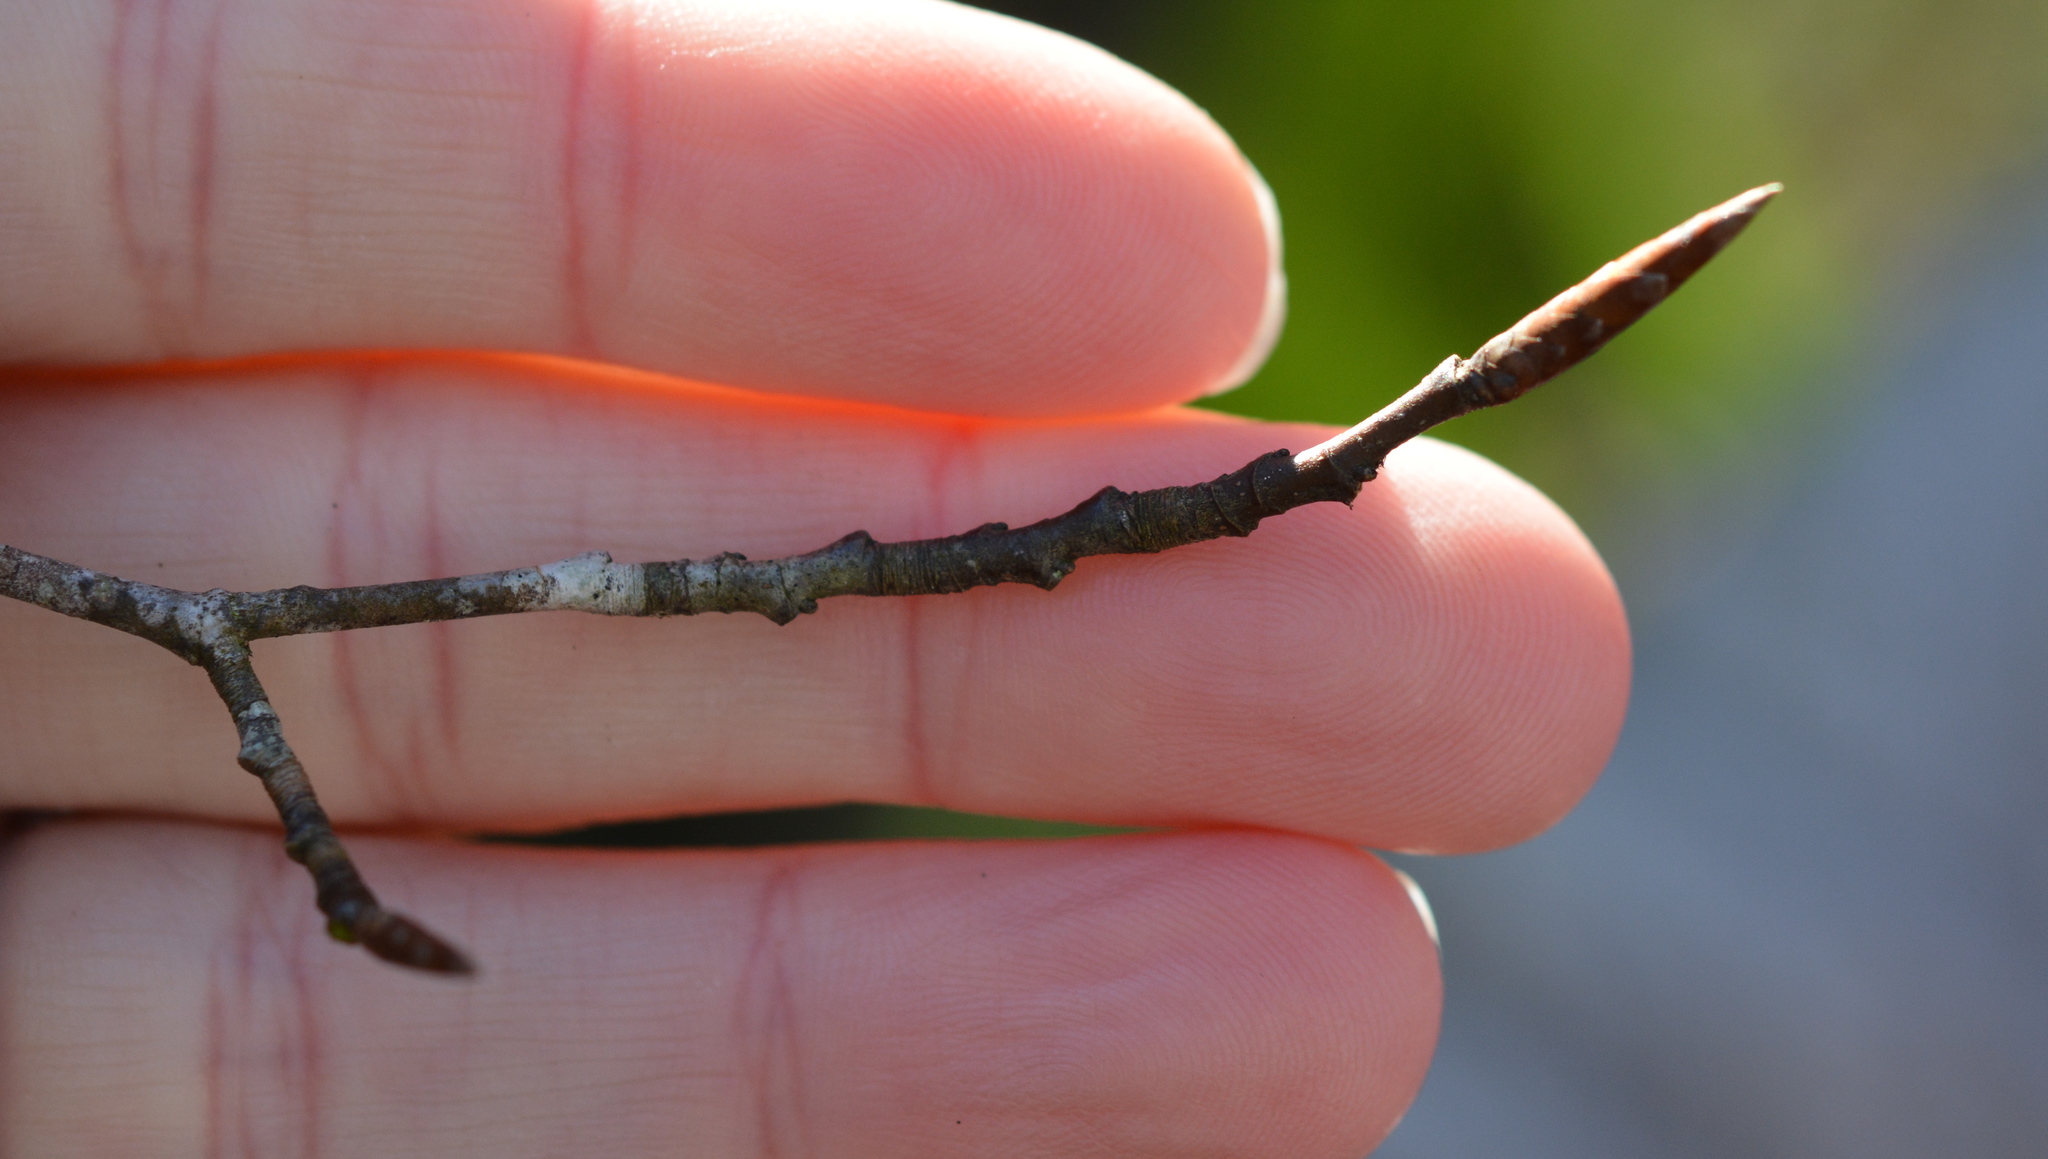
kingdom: Plantae
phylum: Tracheophyta
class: Magnoliopsida
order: Fagales
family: Fagaceae
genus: Fagus
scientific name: Fagus grandifolia
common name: American beech
